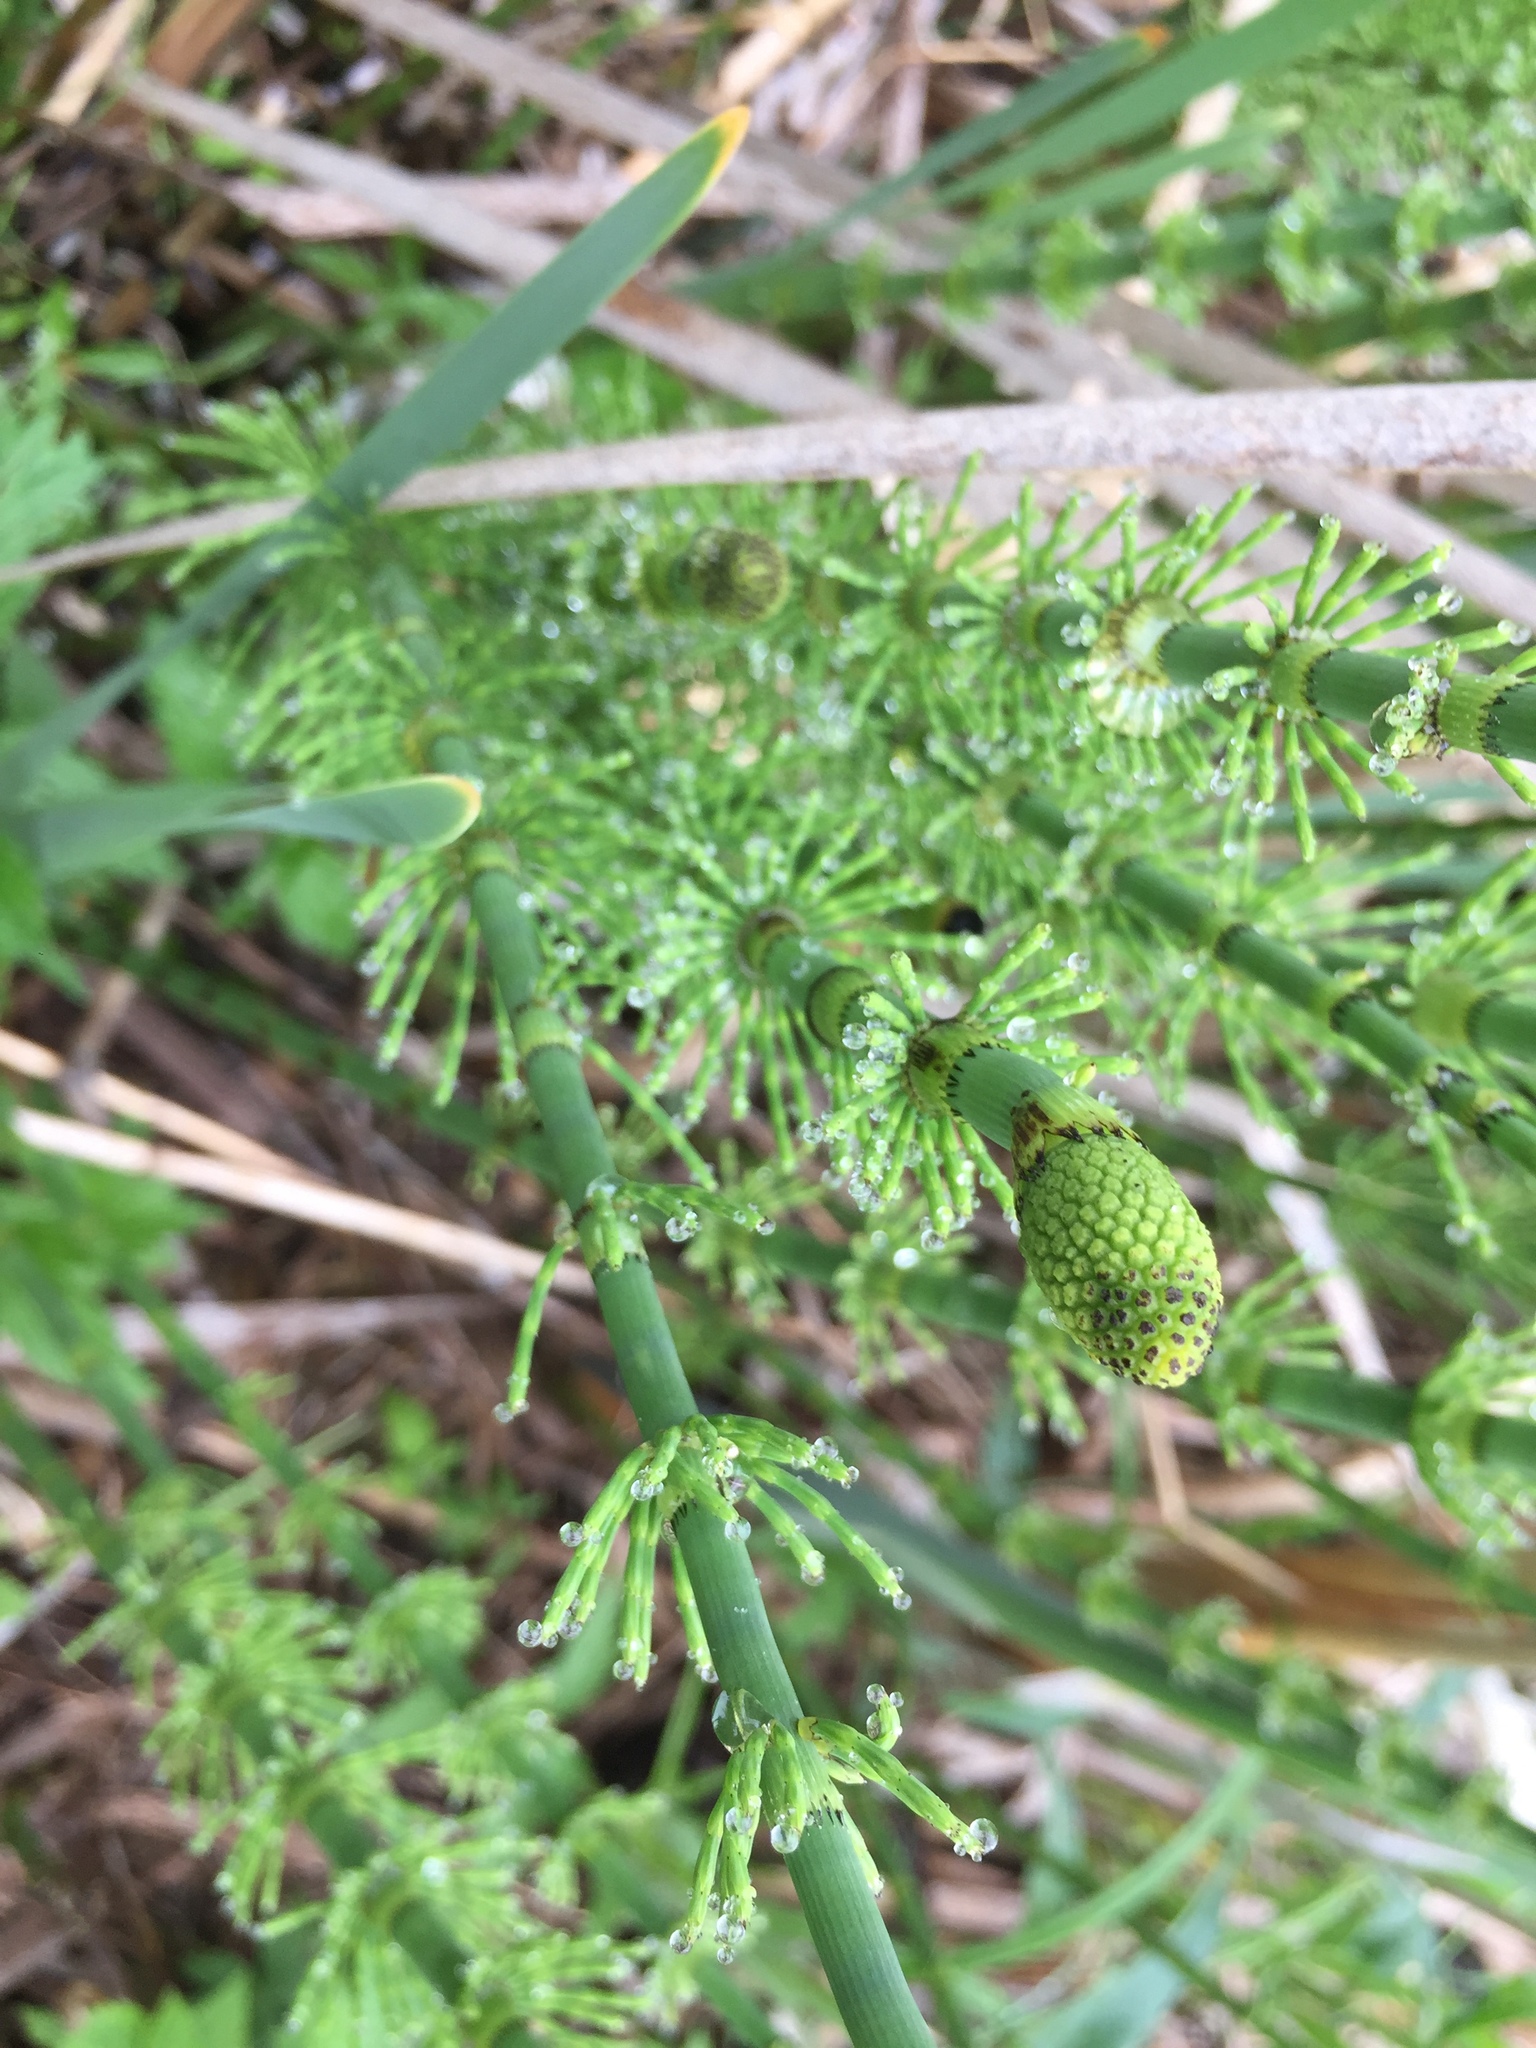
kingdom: Plantae
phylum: Tracheophyta
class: Polypodiopsida
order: Equisetales
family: Equisetaceae
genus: Equisetum
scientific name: Equisetum fluviatile
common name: Water horsetail
